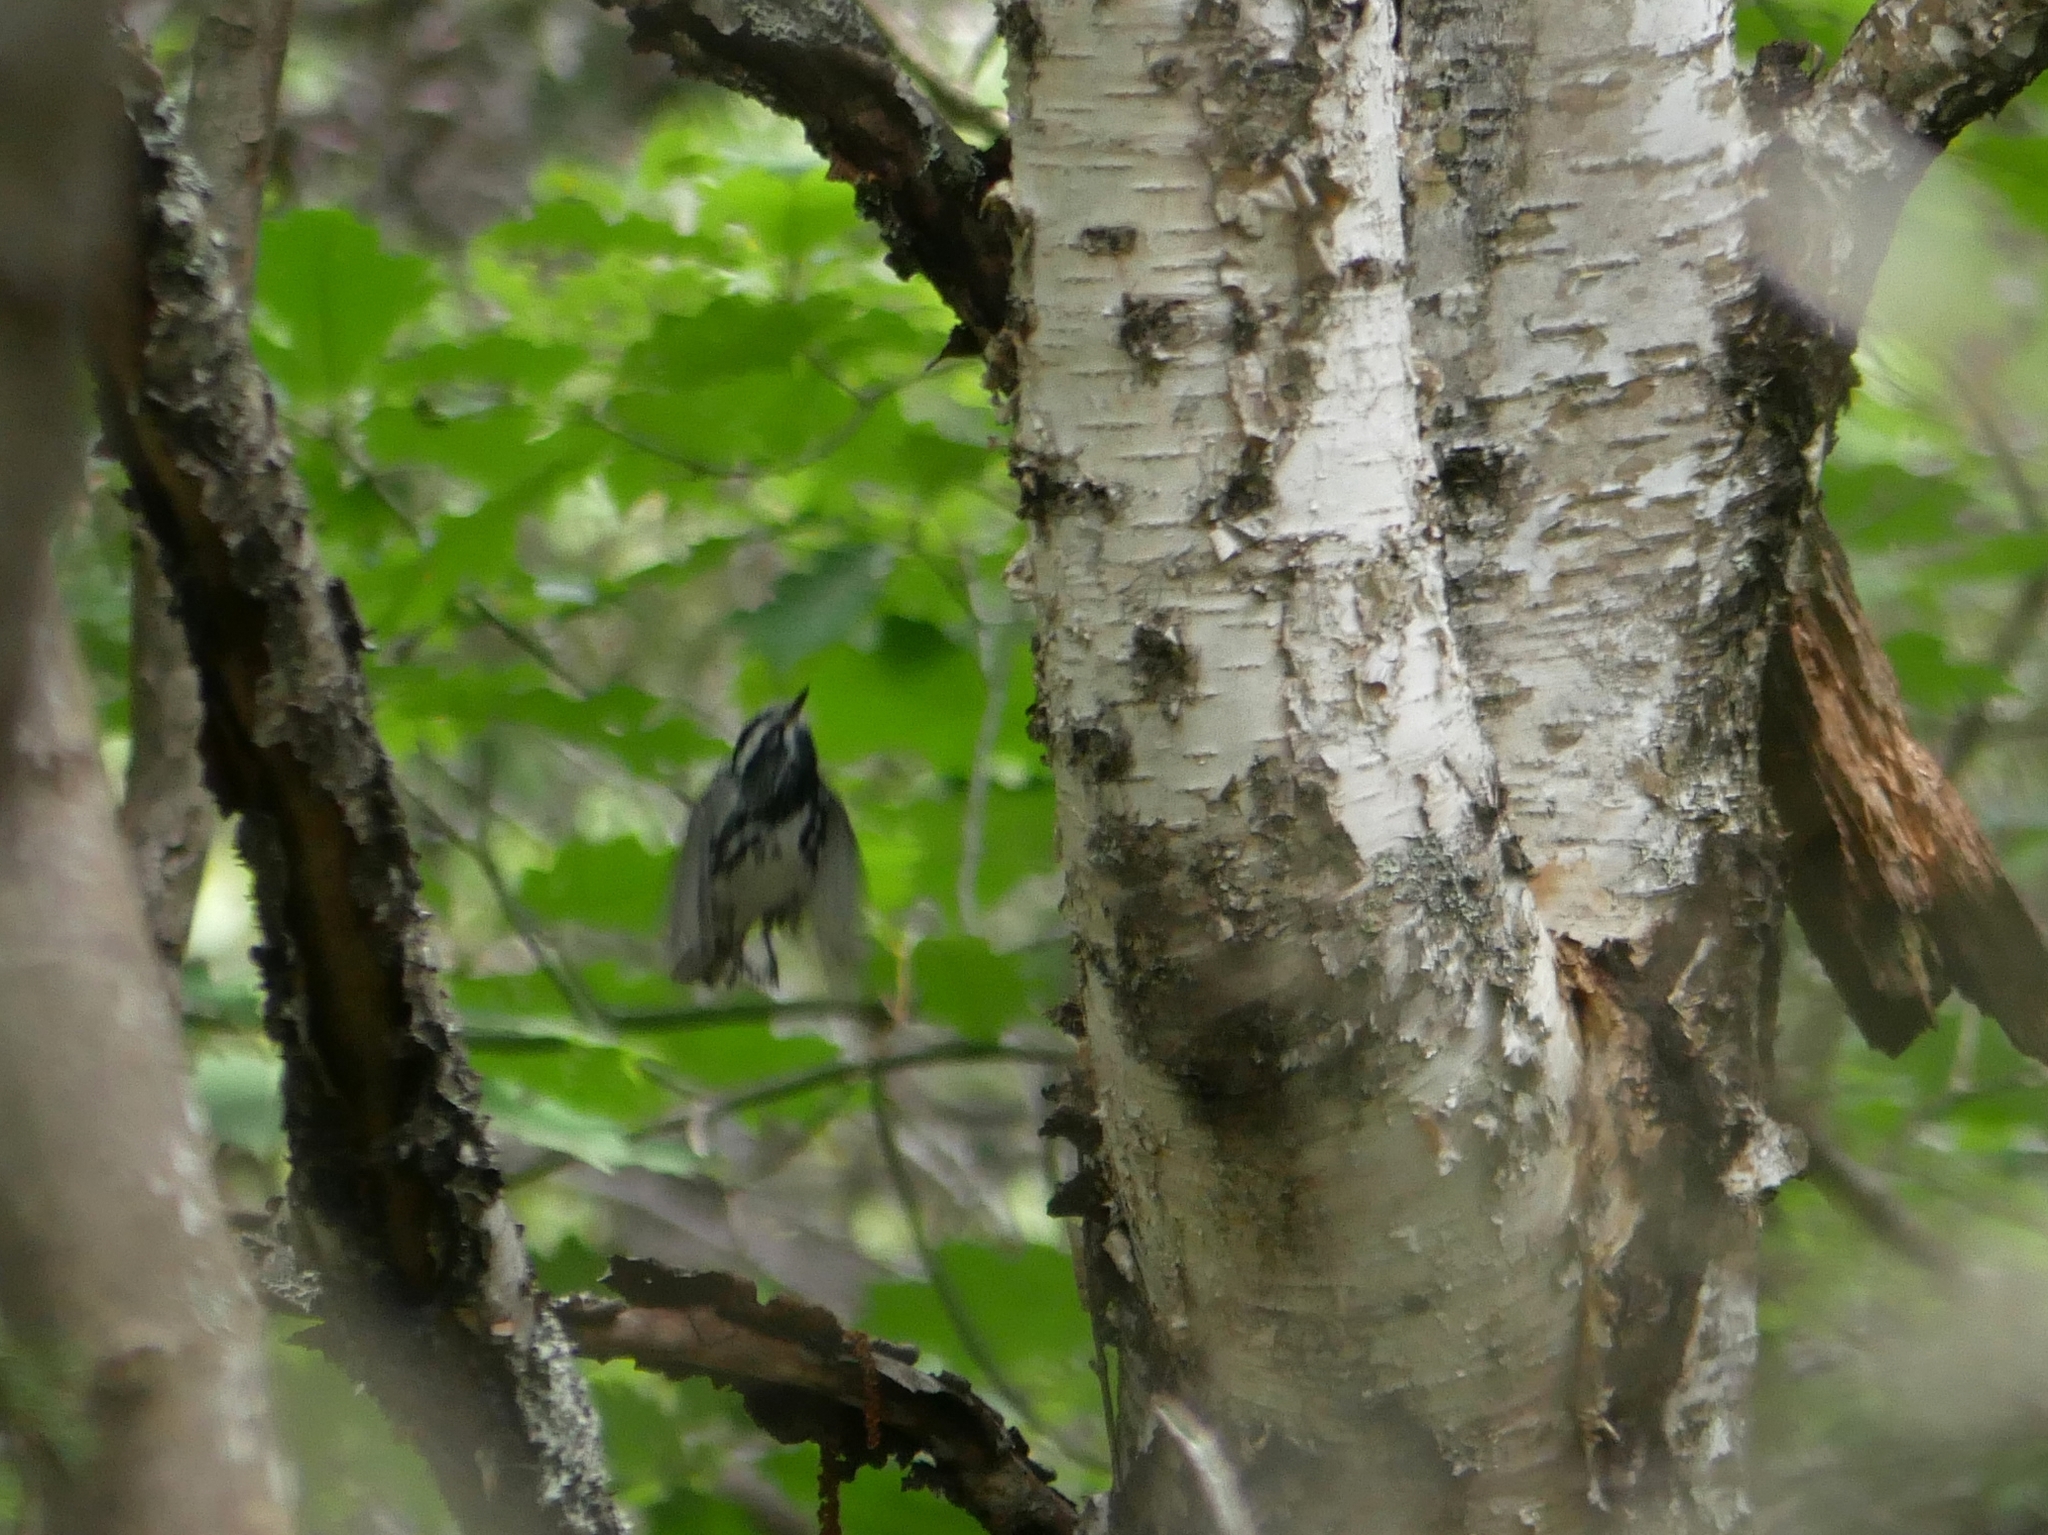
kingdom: Animalia
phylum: Chordata
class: Aves
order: Passeriformes
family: Parulidae
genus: Mniotilta
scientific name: Mniotilta varia
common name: Black-and-white warbler
